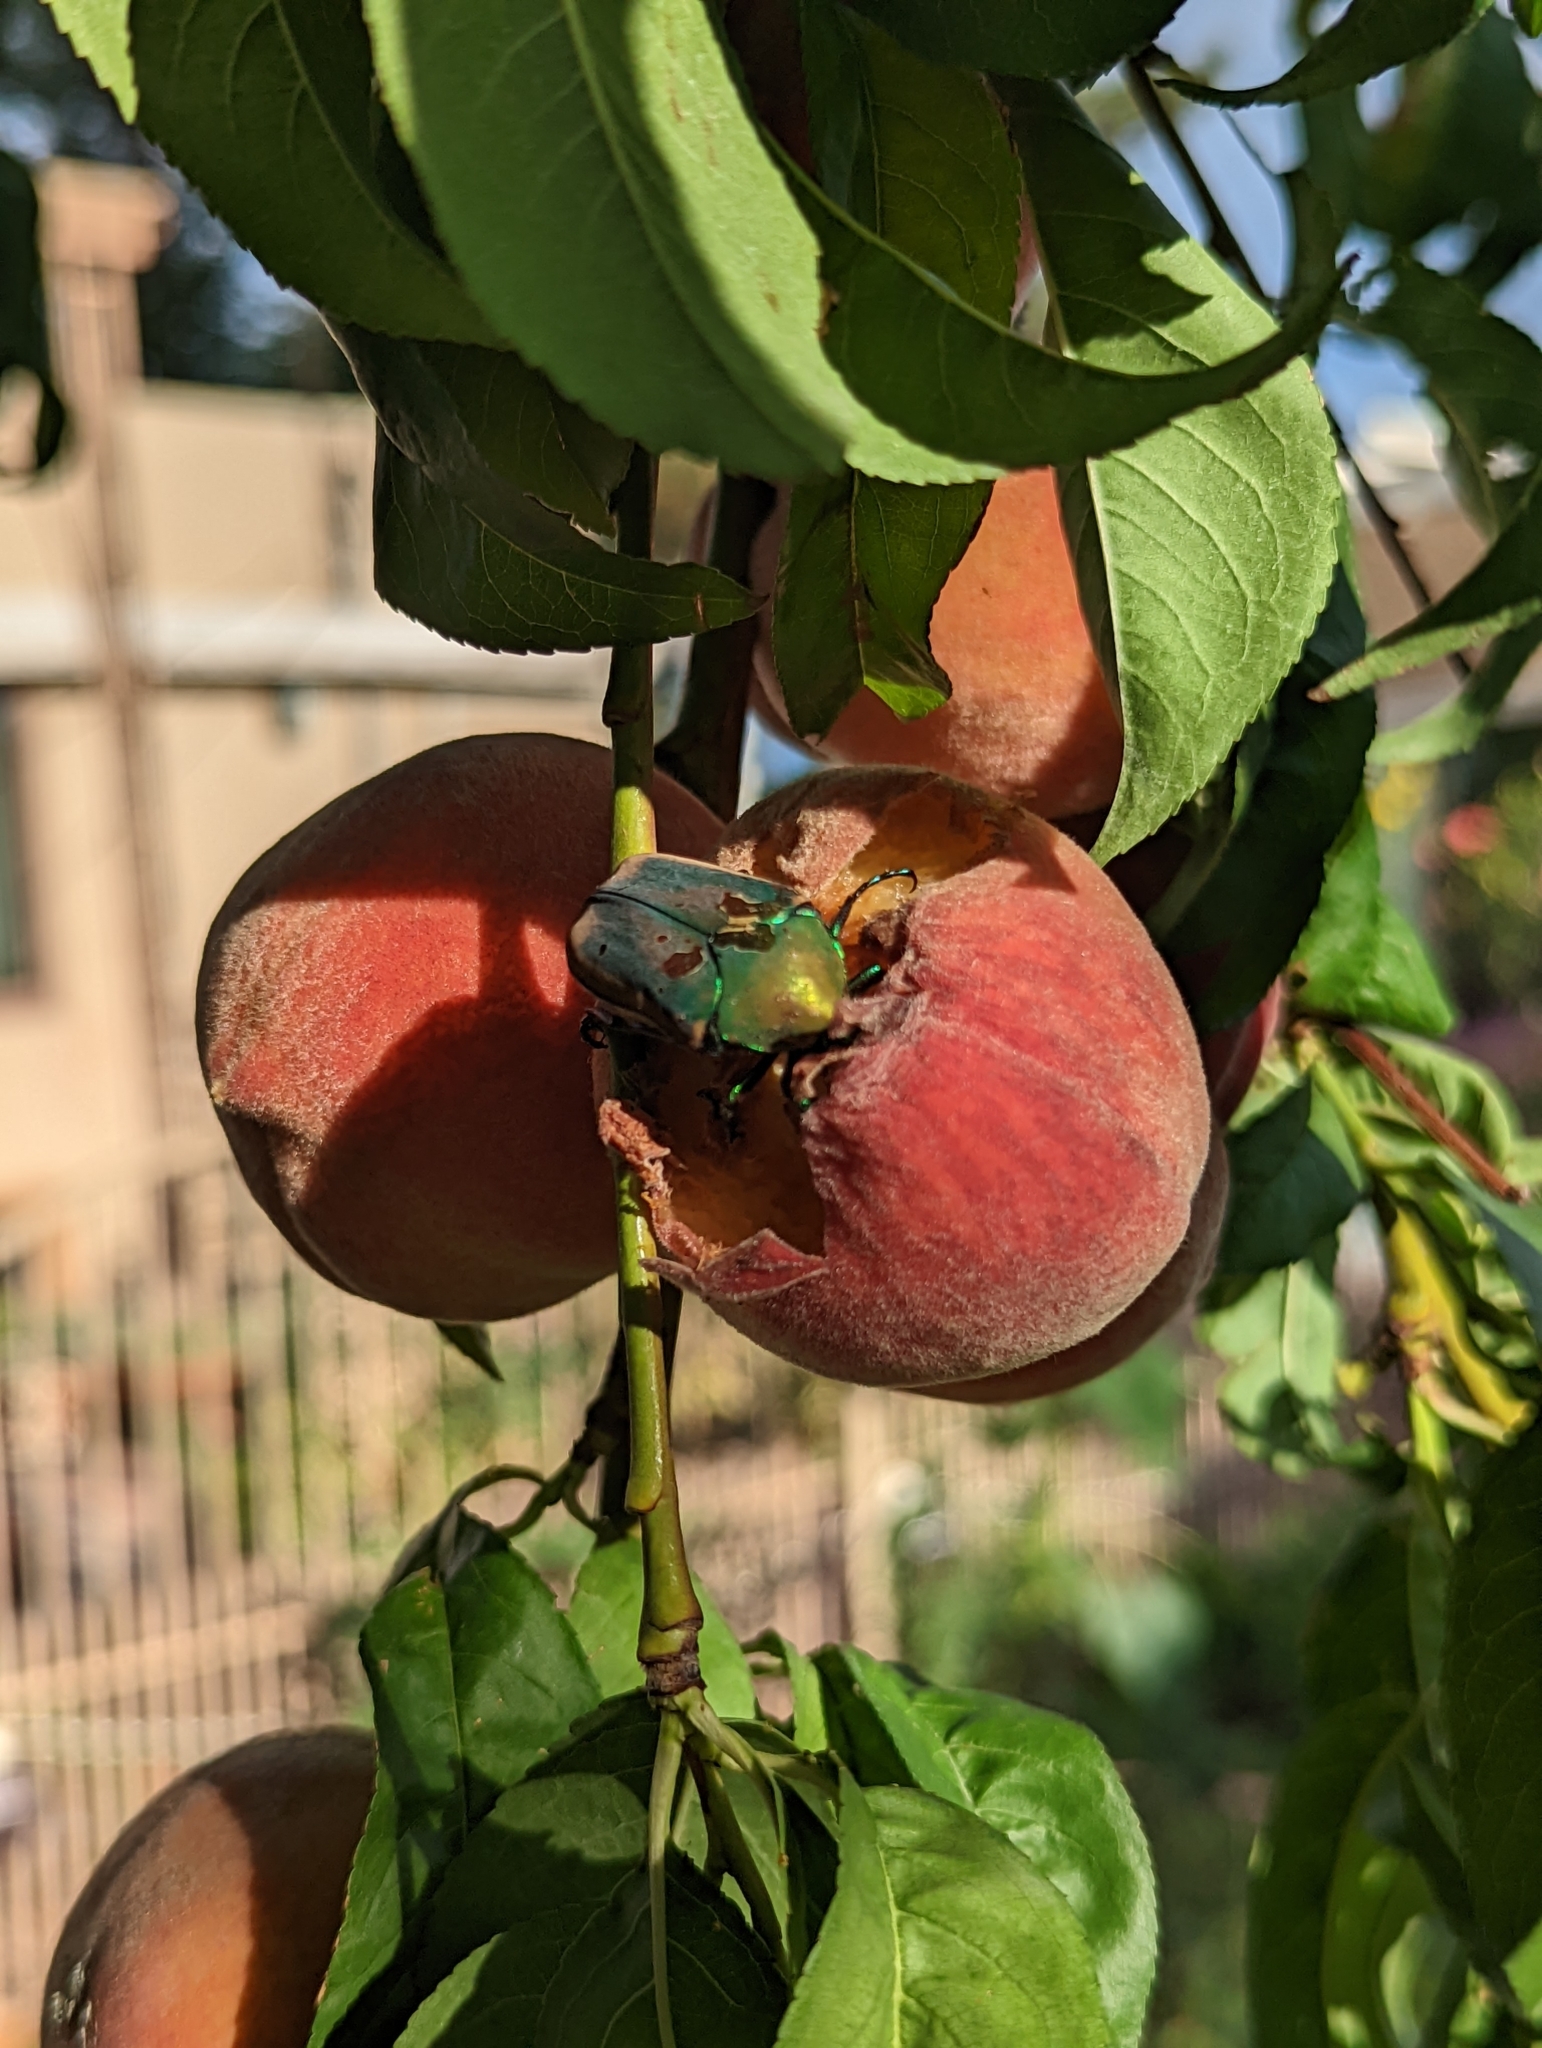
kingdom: Animalia
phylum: Arthropoda
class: Insecta
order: Coleoptera
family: Scarabaeidae
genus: Cotinis
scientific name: Cotinis mutabilis
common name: Figeater beetle
